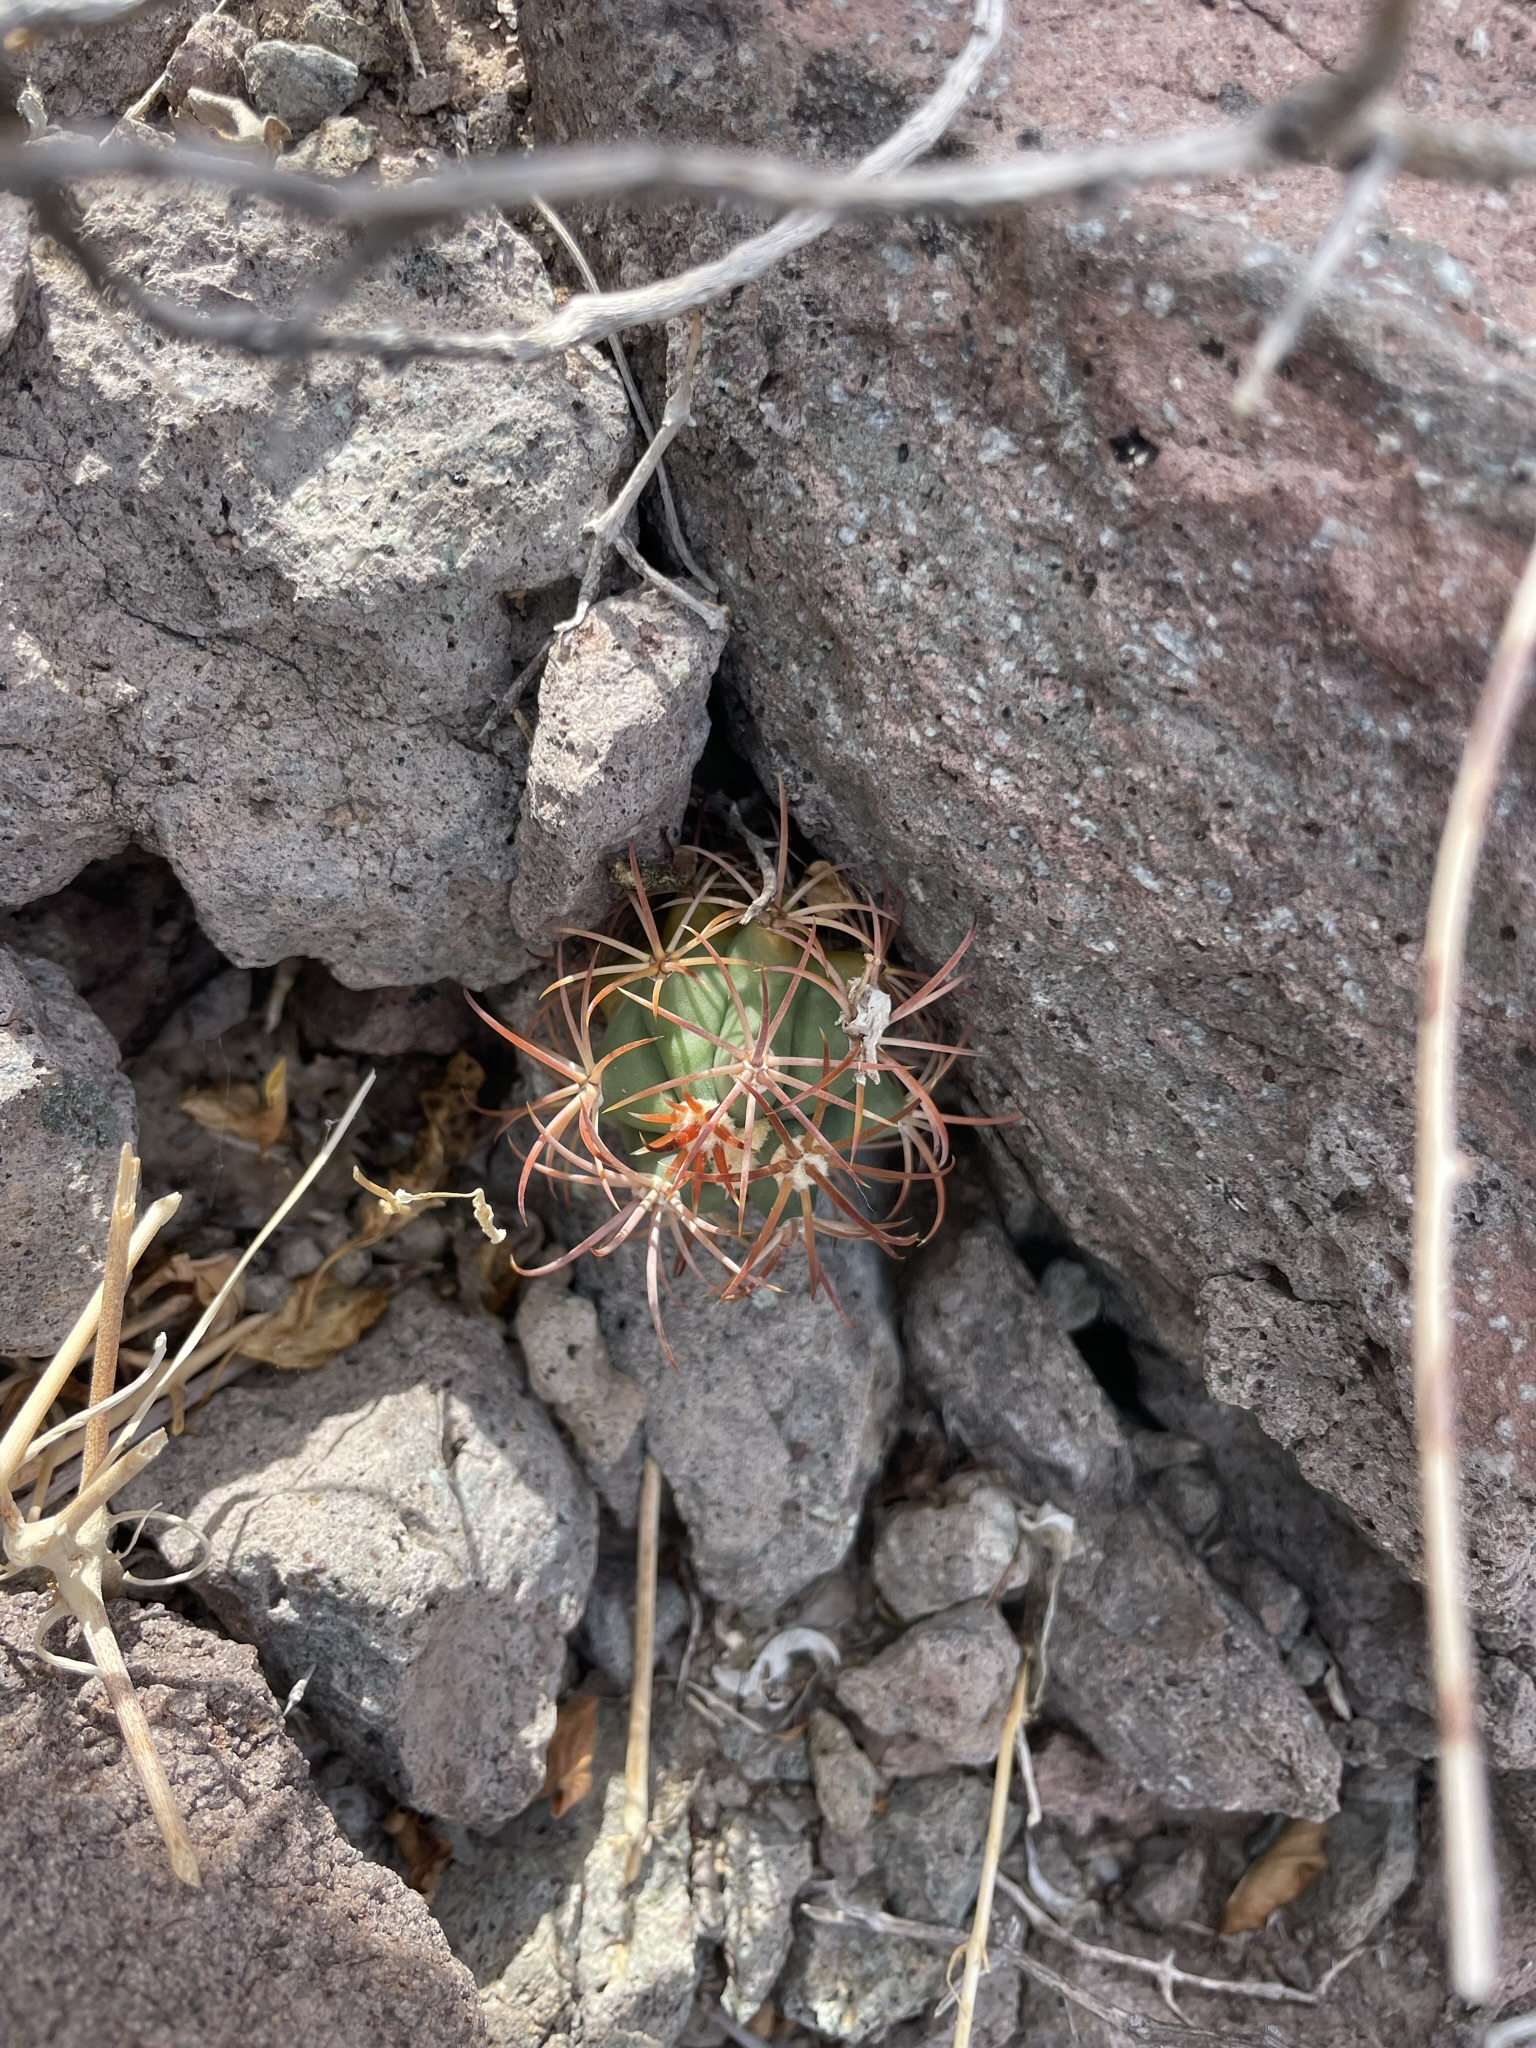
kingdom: Plantae
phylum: Tracheophyta
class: Magnoliopsida
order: Caryophyllales
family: Cactaceae
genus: Ferocactus
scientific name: Ferocactus diguetii
